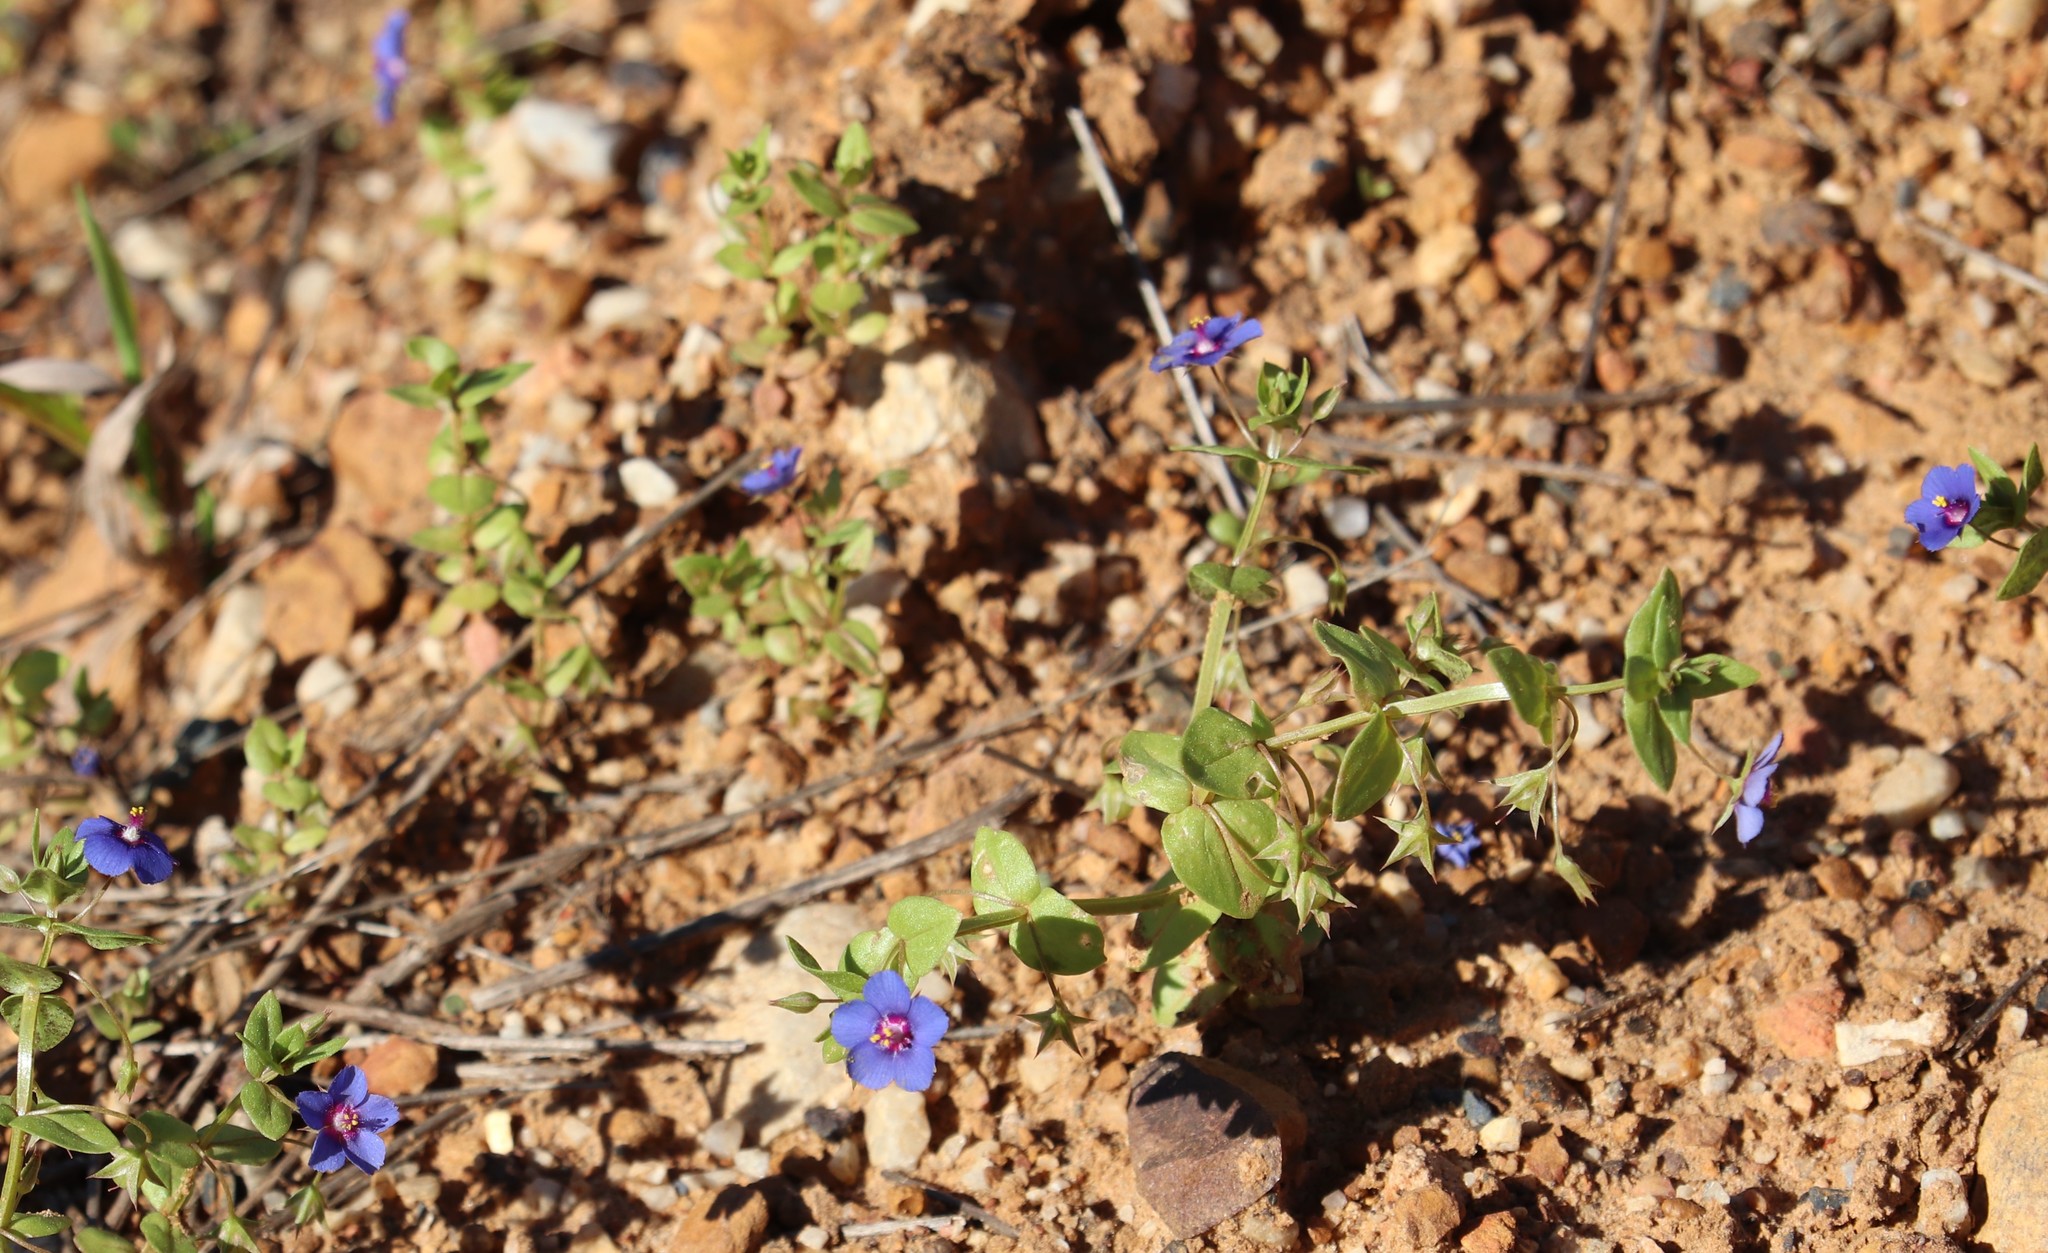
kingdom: Plantae
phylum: Tracheophyta
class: Magnoliopsida
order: Ericales
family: Primulaceae
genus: Lysimachia
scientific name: Lysimachia loeflingii
